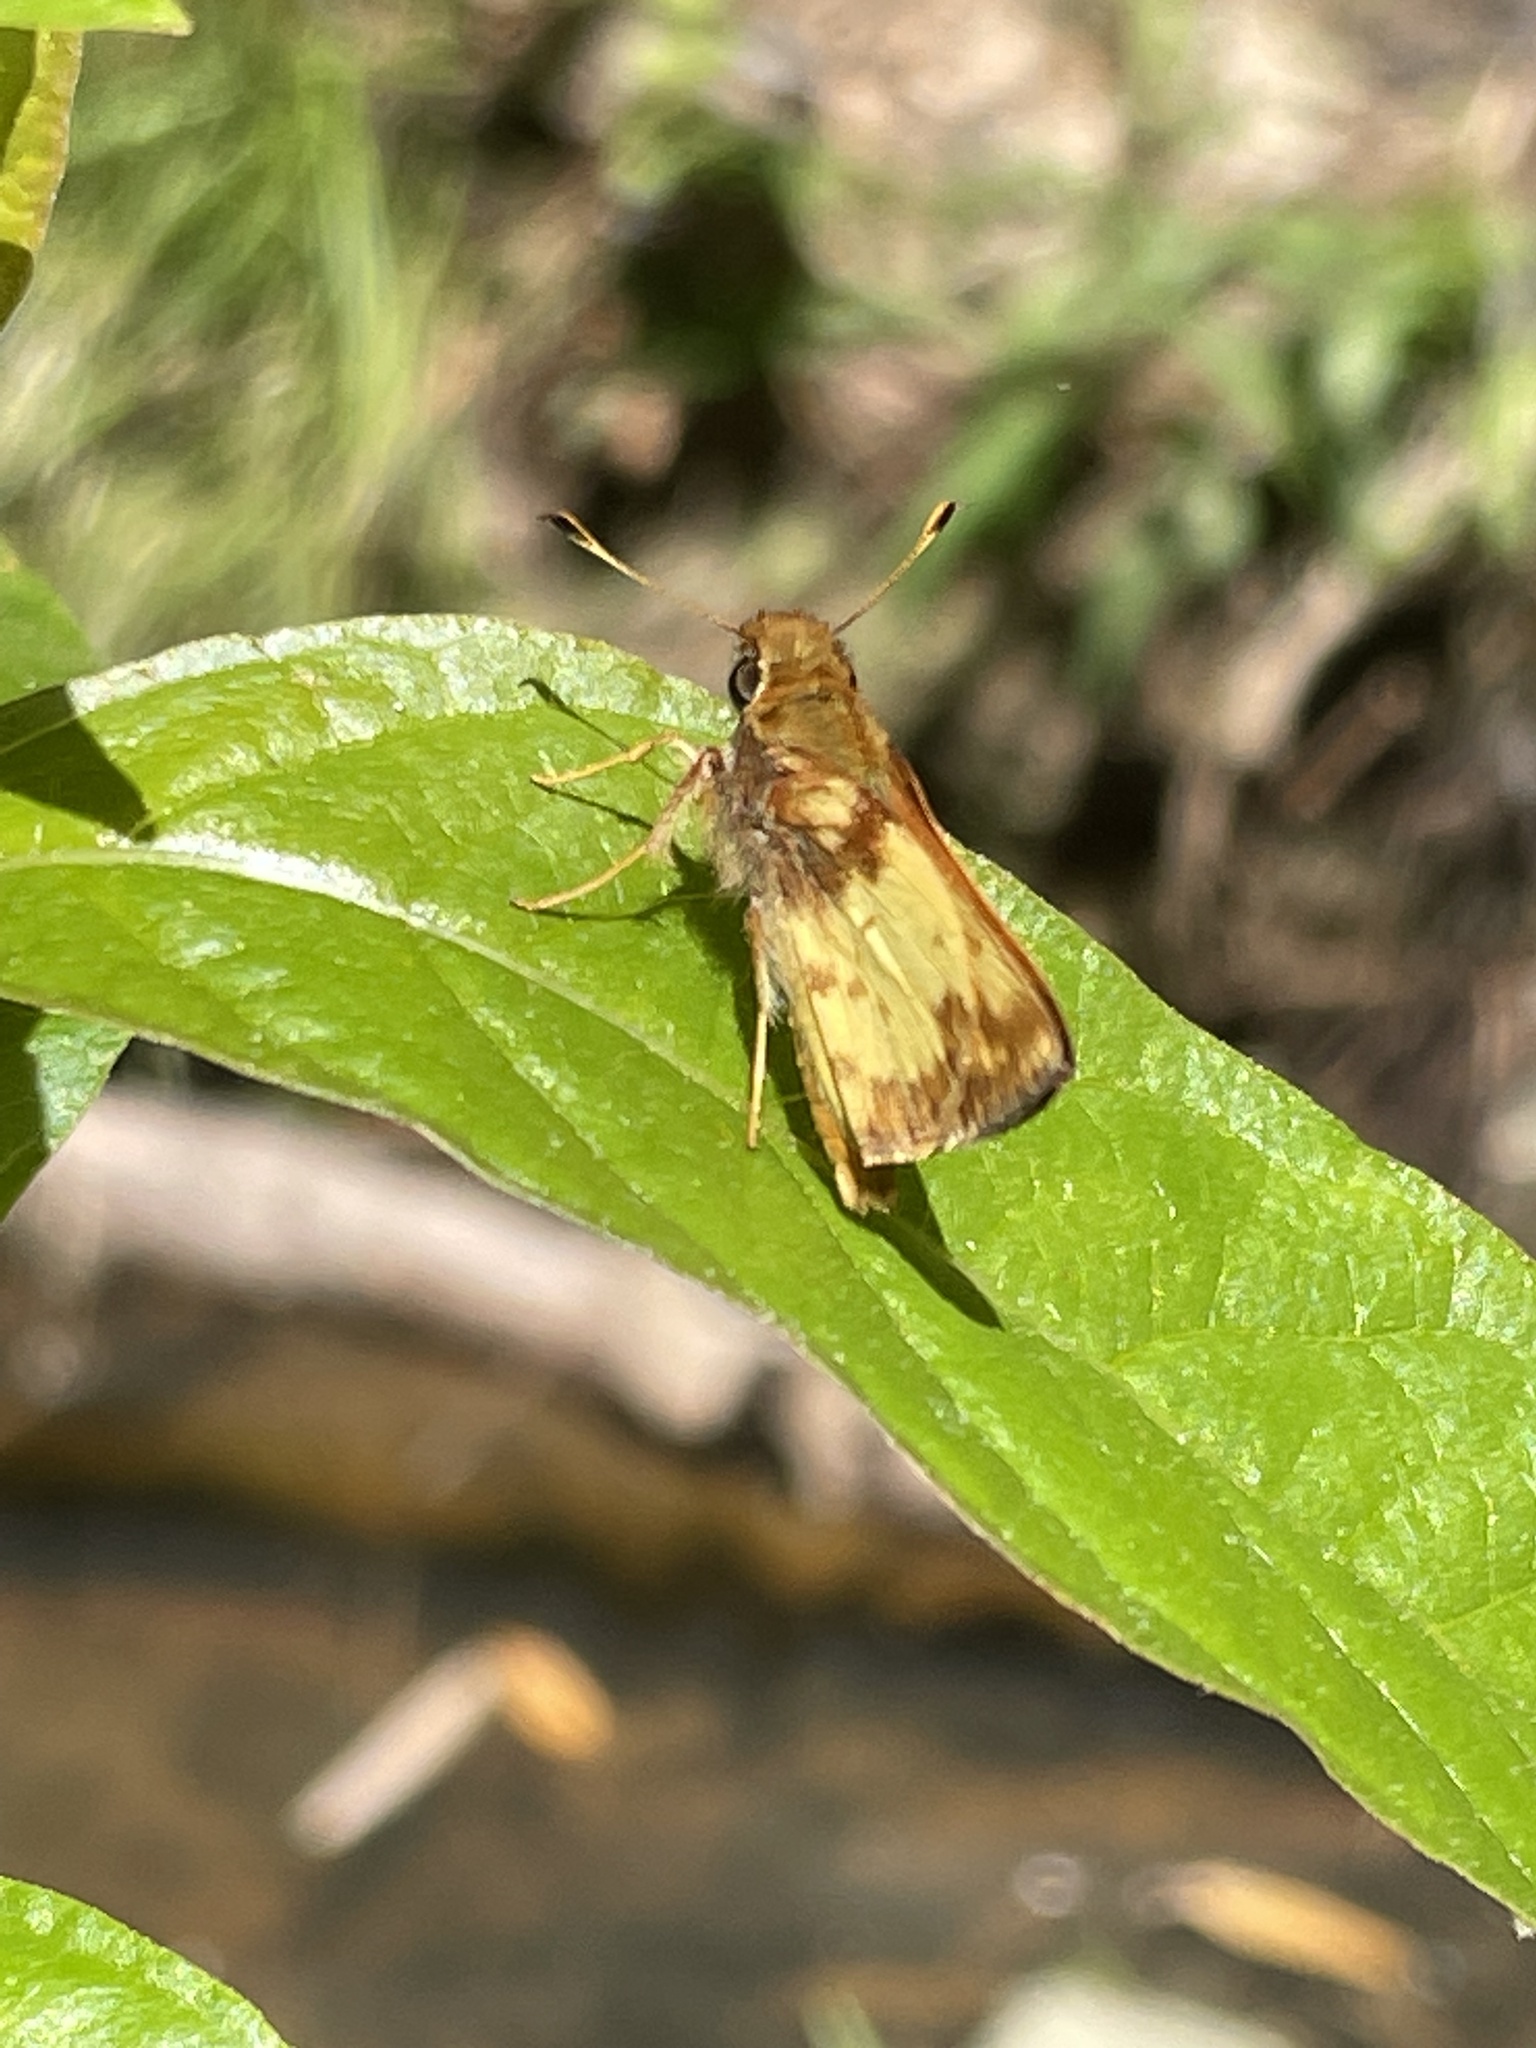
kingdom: Animalia
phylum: Arthropoda
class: Insecta
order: Lepidoptera
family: Hesperiidae
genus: Lon
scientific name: Lon zabulon
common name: Zabulon skipper
